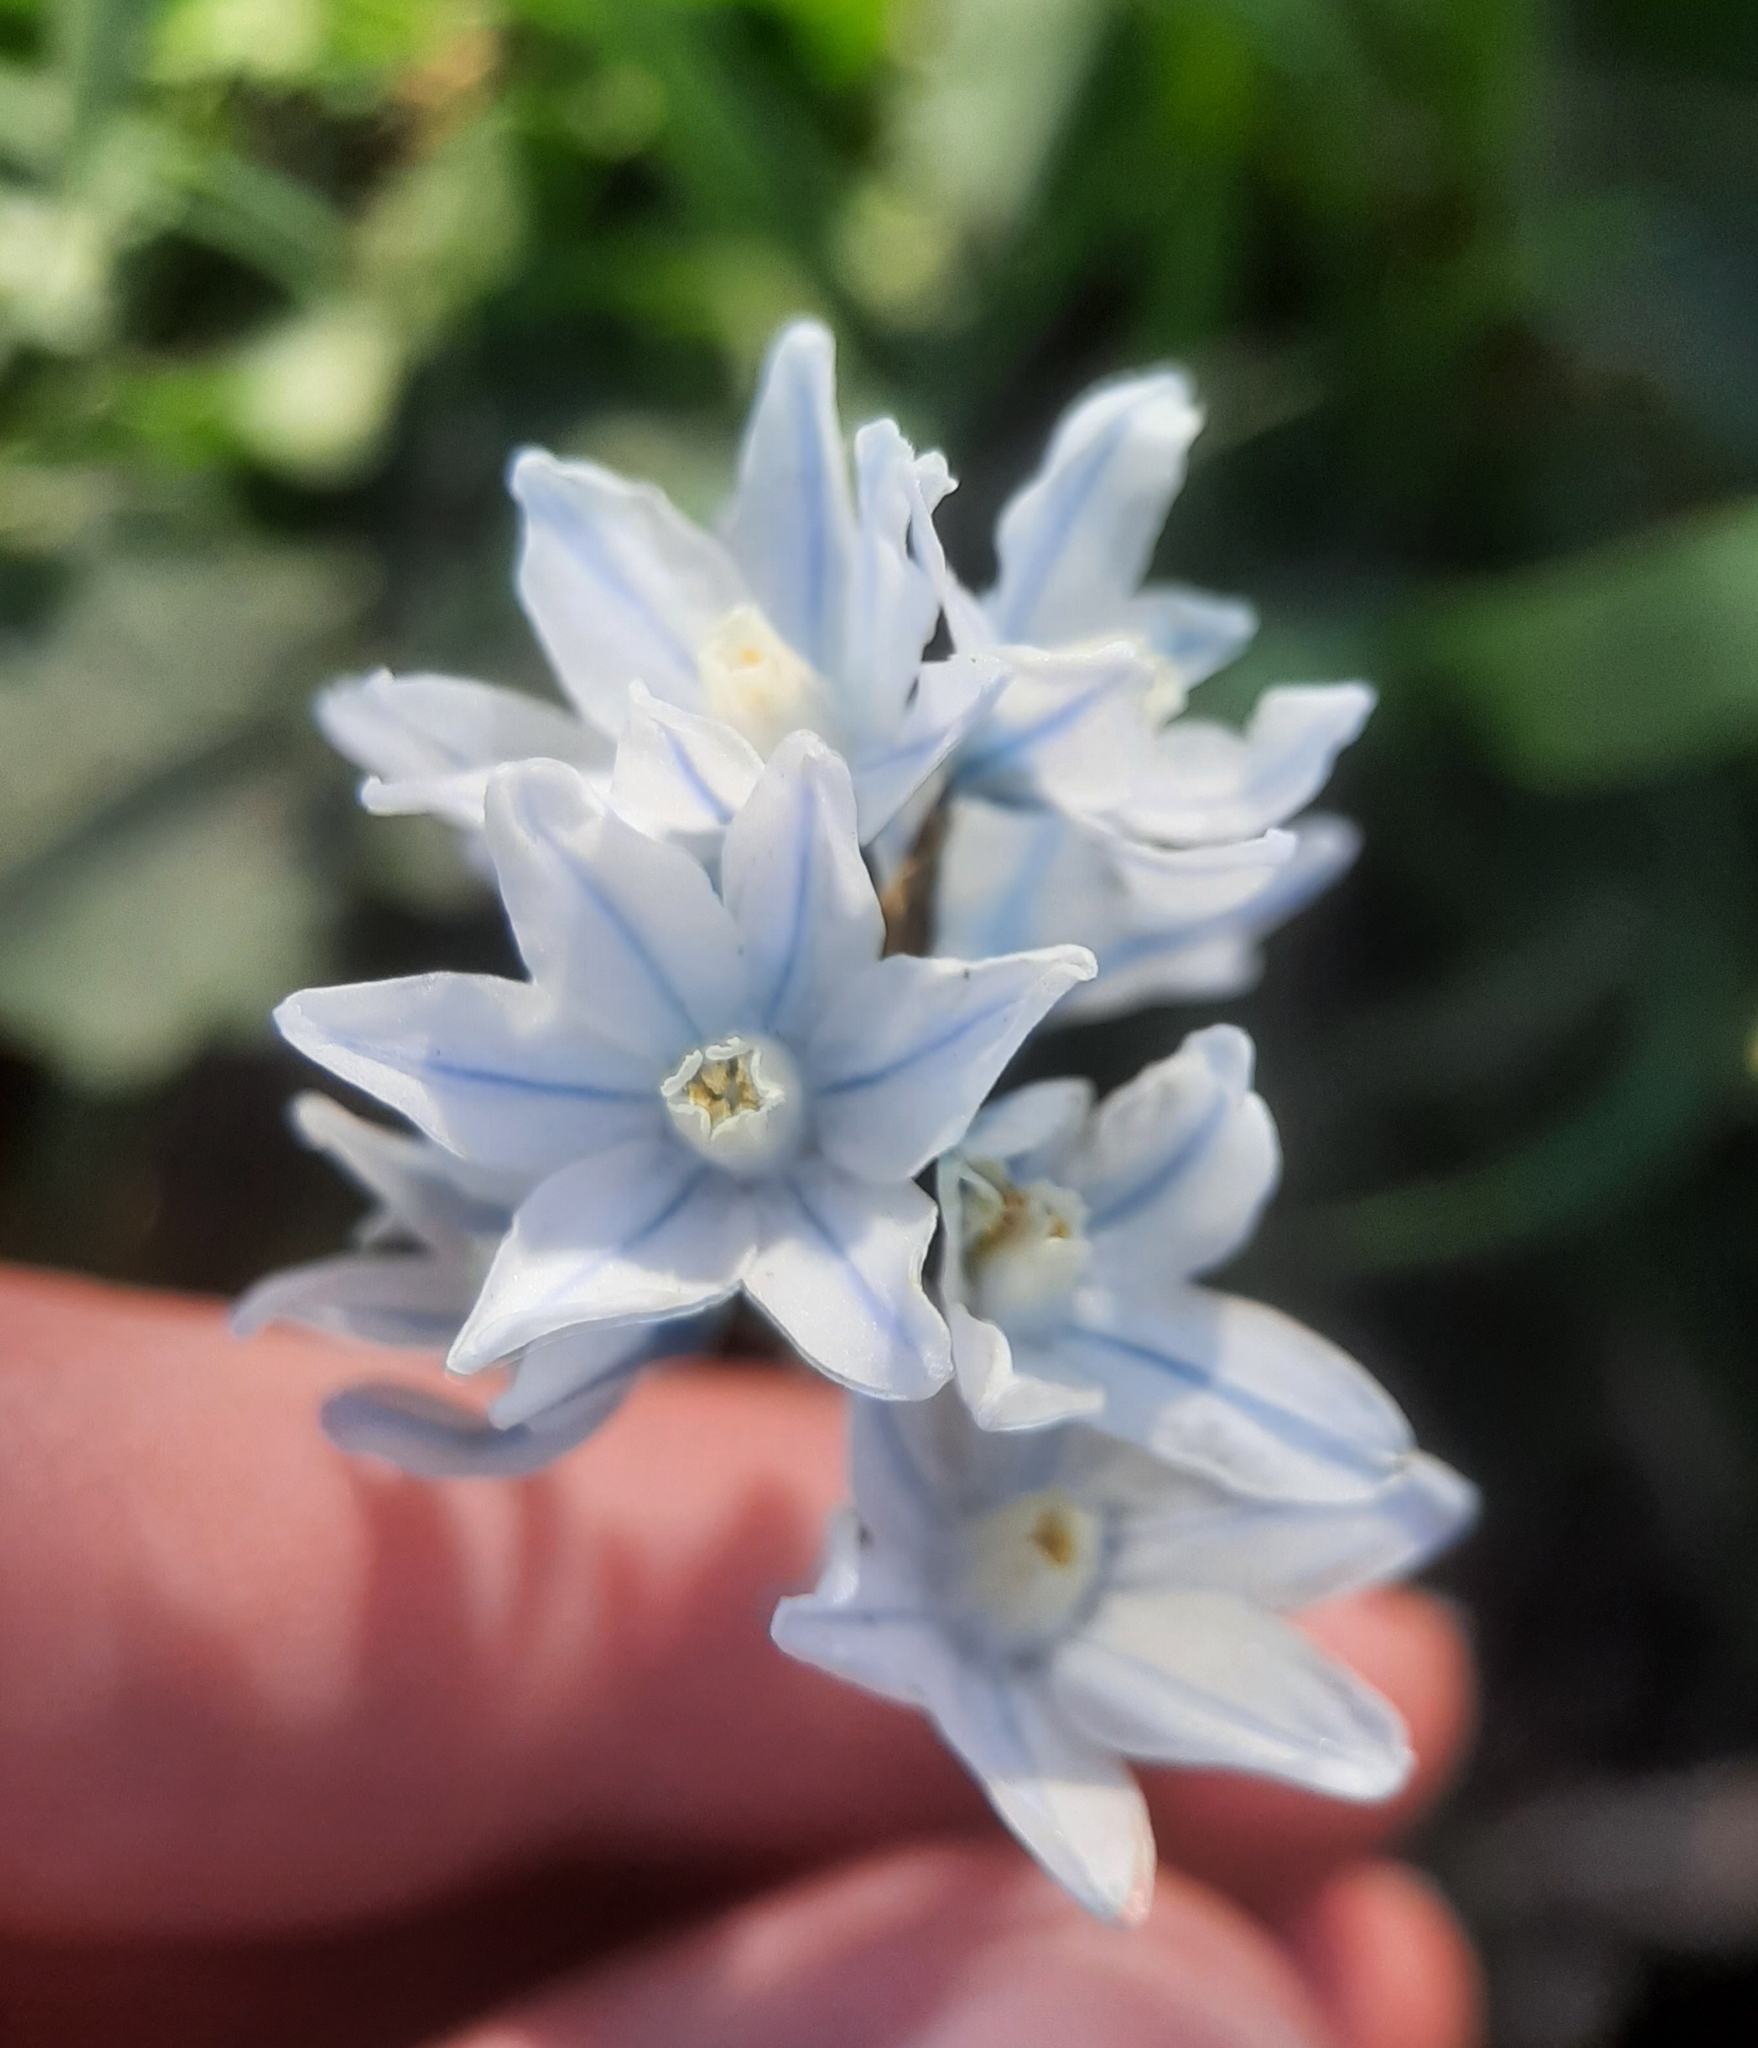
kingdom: Plantae
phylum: Tracheophyta
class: Liliopsida
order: Asparagales
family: Asparagaceae
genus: Puschkinia
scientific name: Puschkinia scilloides
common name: Striped squill
